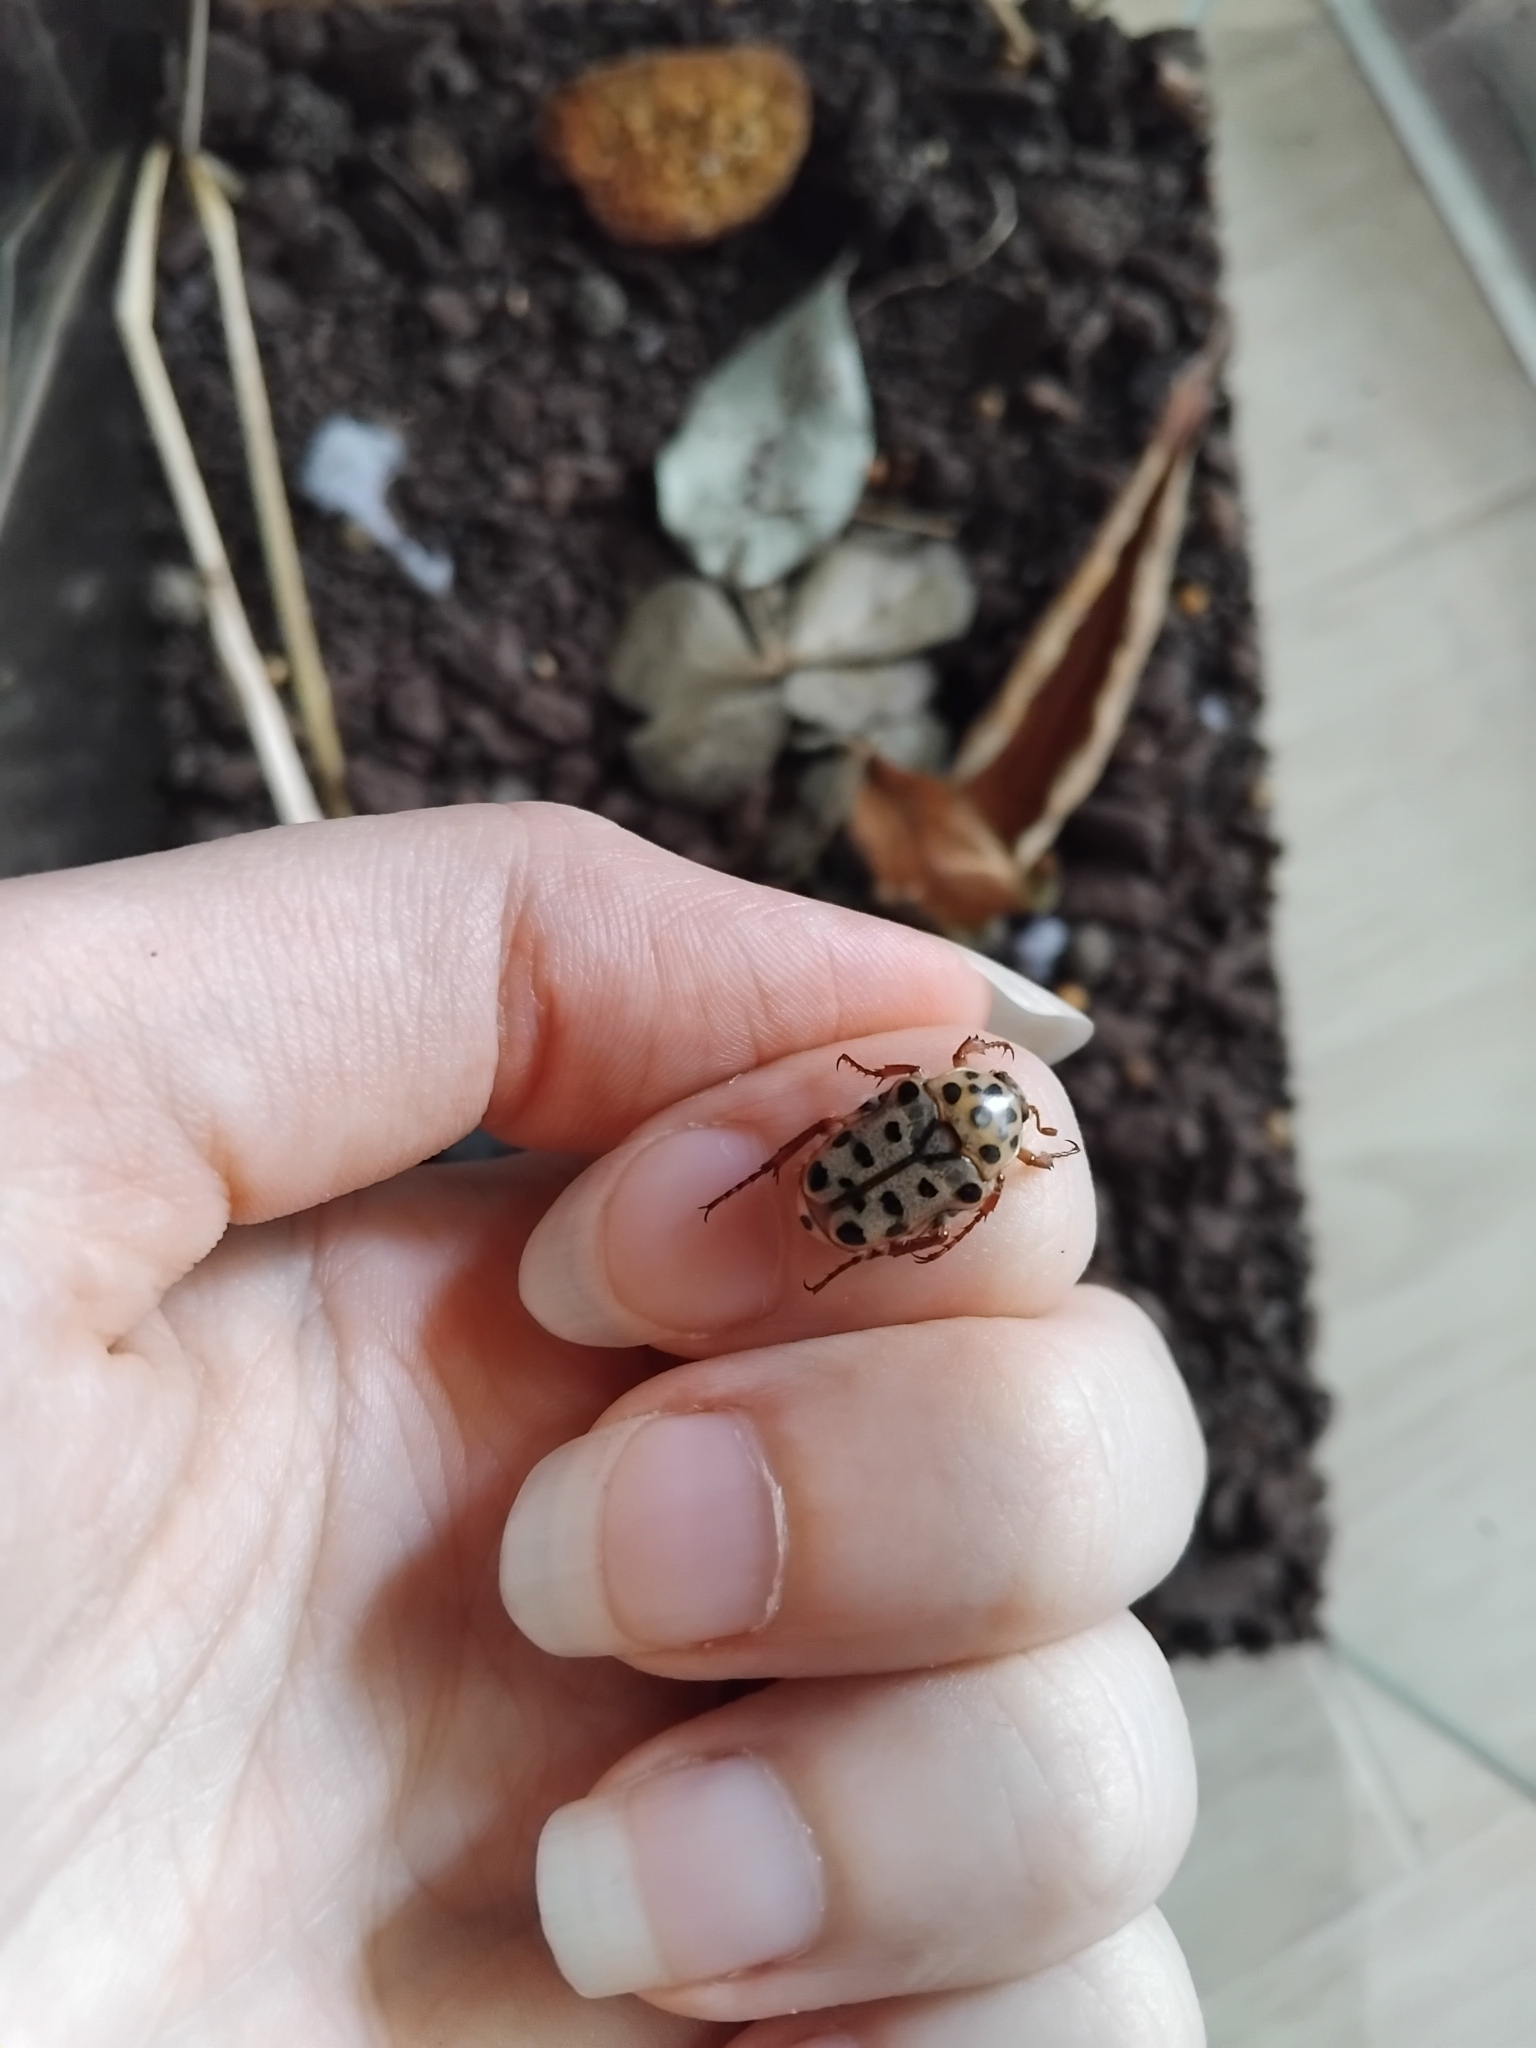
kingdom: Animalia
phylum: Arthropoda
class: Insecta
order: Coleoptera
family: Scarabaeidae
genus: Neorrhina
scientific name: Neorrhina punctatum
